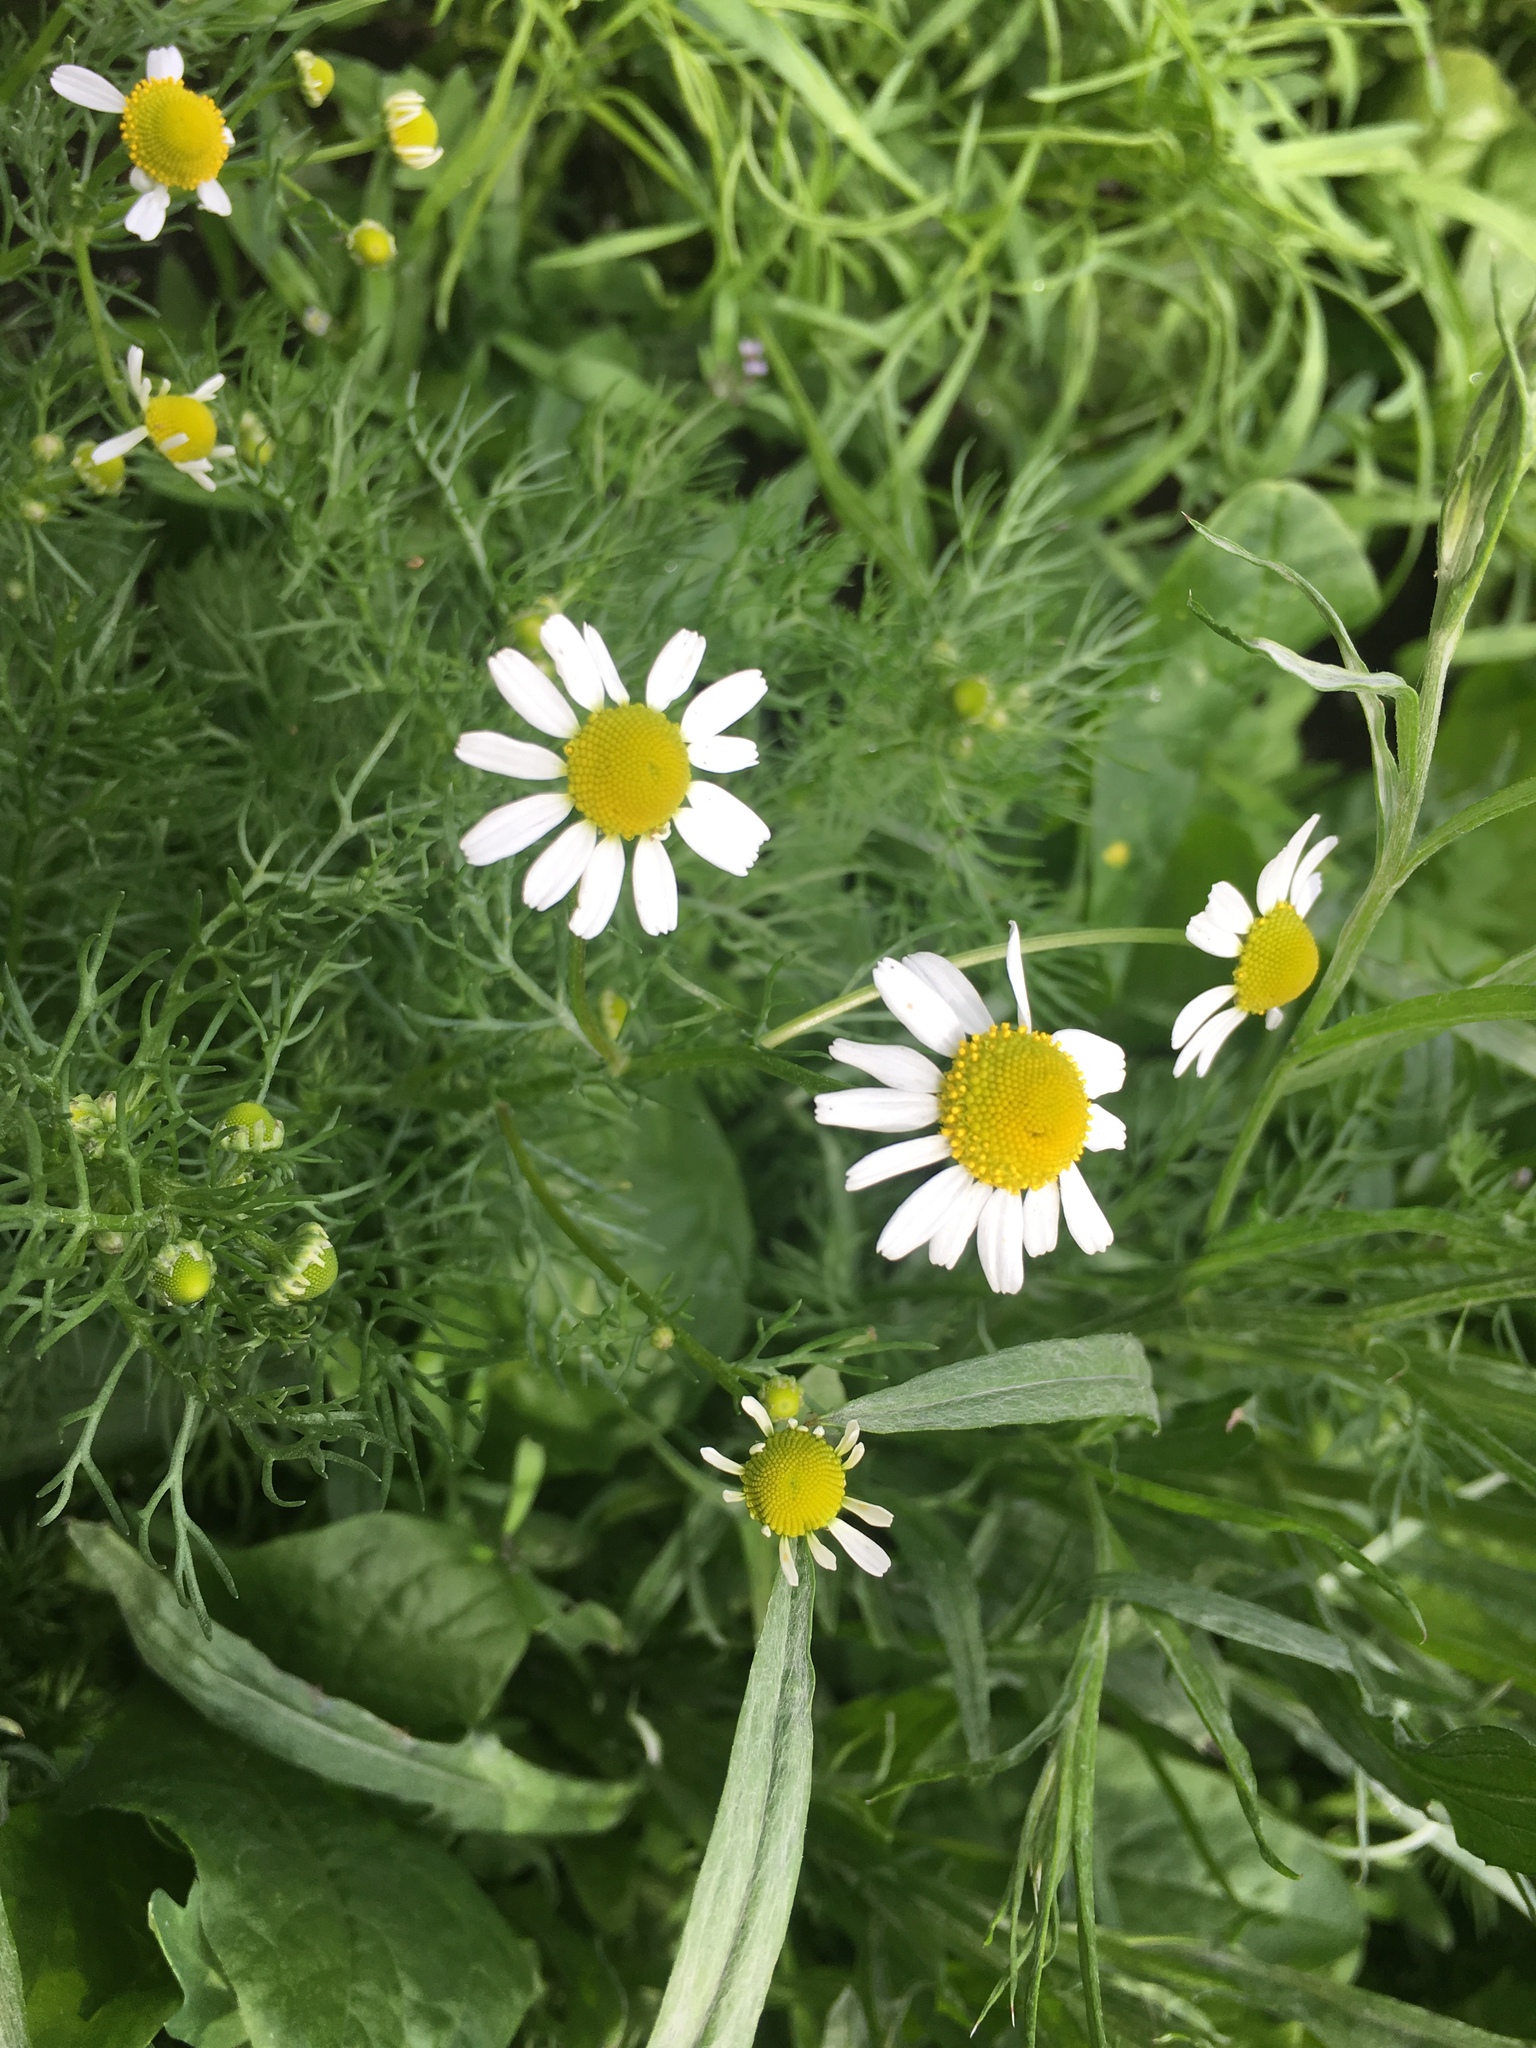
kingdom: Plantae
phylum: Tracheophyta
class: Magnoliopsida
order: Asterales
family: Asteraceae
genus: Matricaria
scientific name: Matricaria chamomilla
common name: Scented mayweed
